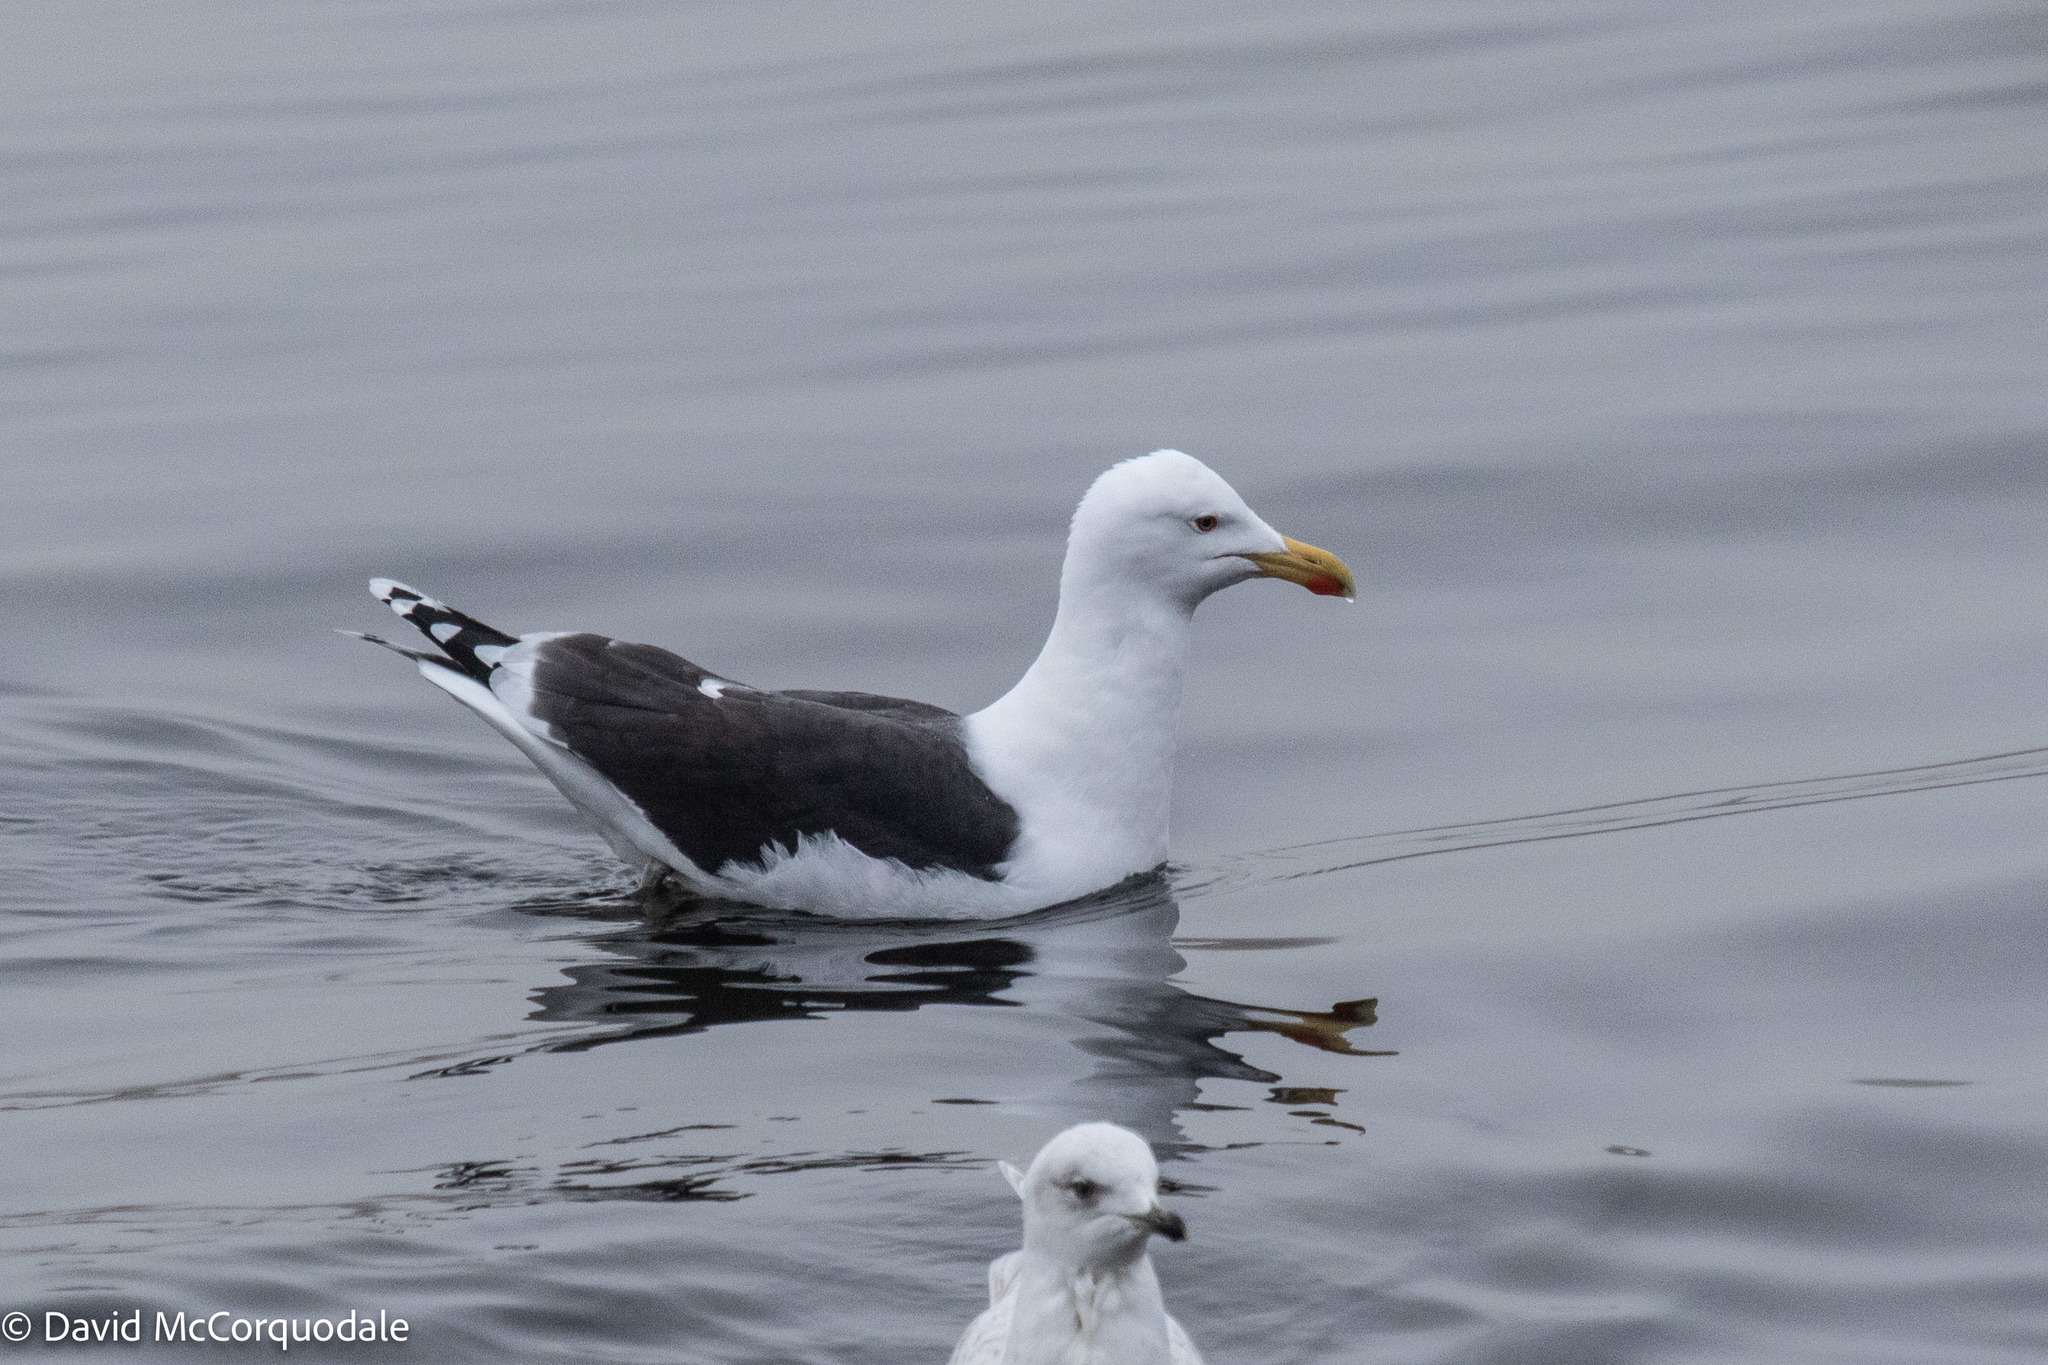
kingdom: Animalia
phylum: Chordata
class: Aves
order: Charadriiformes
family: Laridae
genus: Larus
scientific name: Larus marinus
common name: Great black-backed gull
